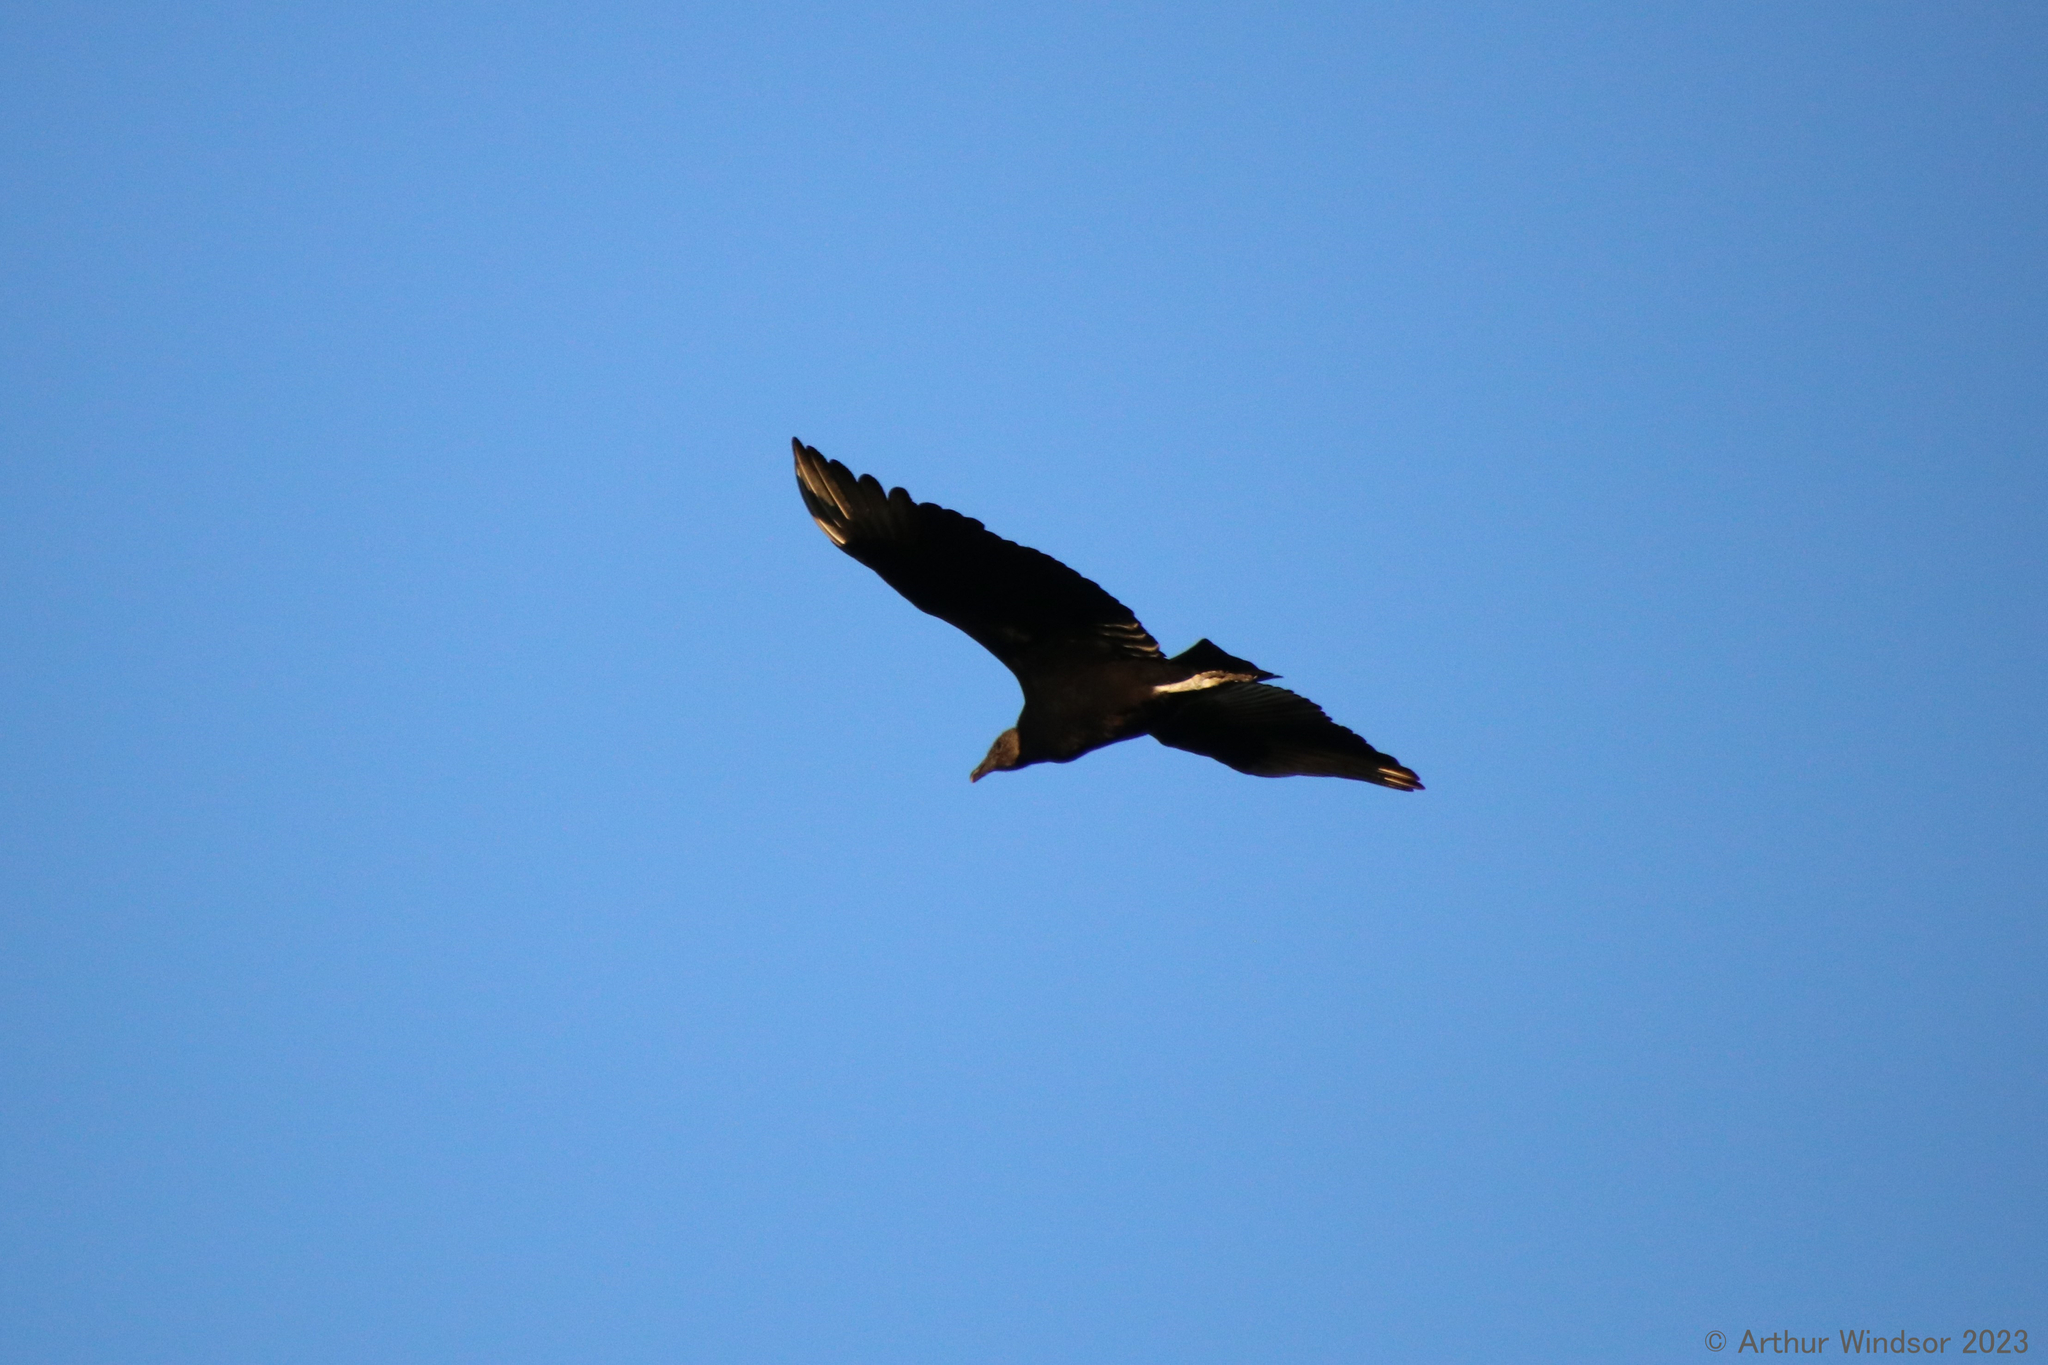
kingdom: Animalia
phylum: Chordata
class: Aves
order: Accipitriformes
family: Cathartidae
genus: Coragyps
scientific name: Coragyps atratus
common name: Black vulture
